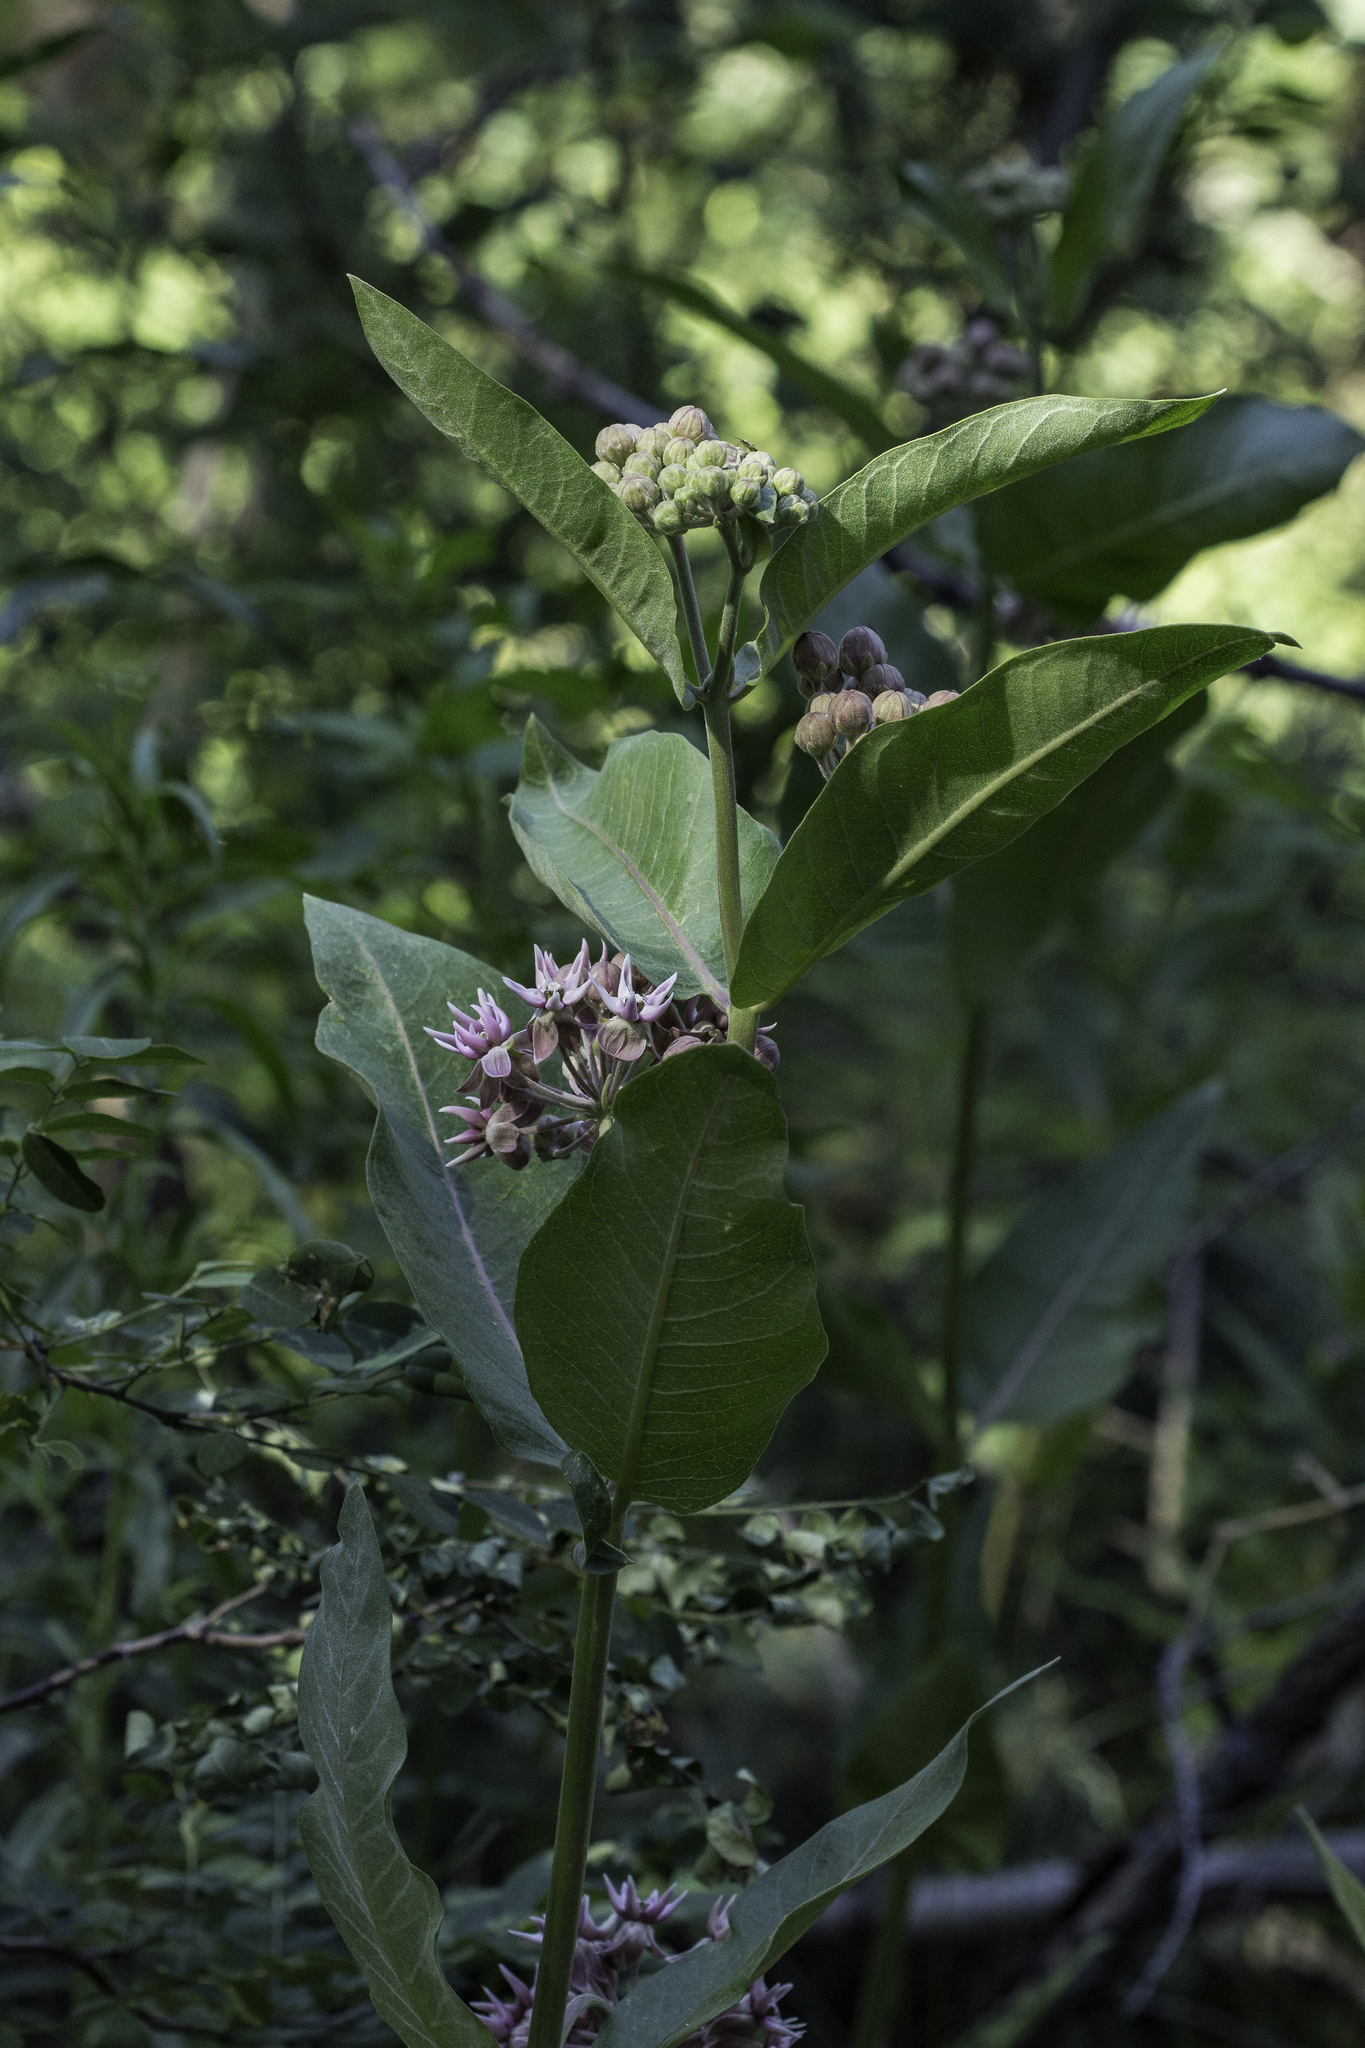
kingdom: Plantae
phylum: Tracheophyta
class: Magnoliopsida
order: Gentianales
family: Apocynaceae
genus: Asclepias
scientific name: Asclepias speciosa
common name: Showy milkweed
